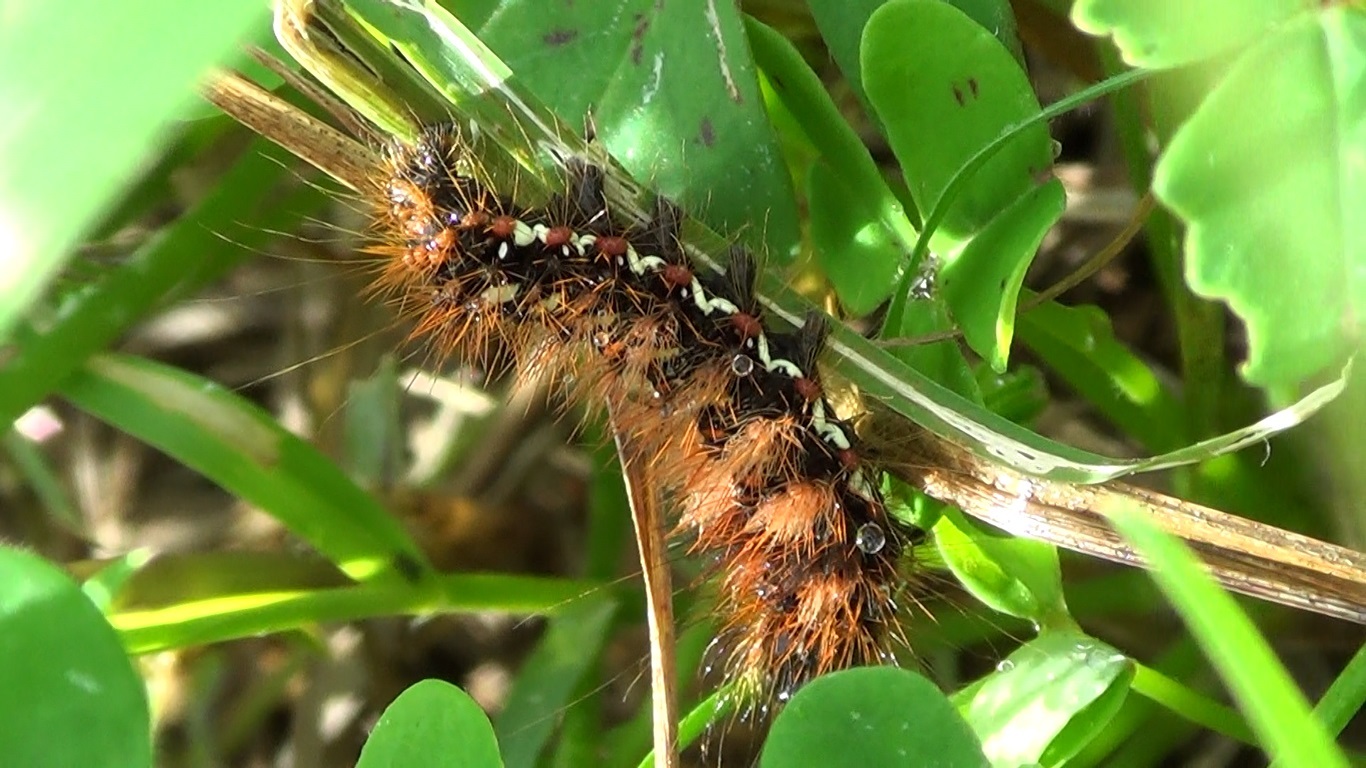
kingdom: Animalia
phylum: Arthropoda
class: Insecta
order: Lepidoptera
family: Noctuidae
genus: Acronicta
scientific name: Acronicta rumicis
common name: Knot grass
